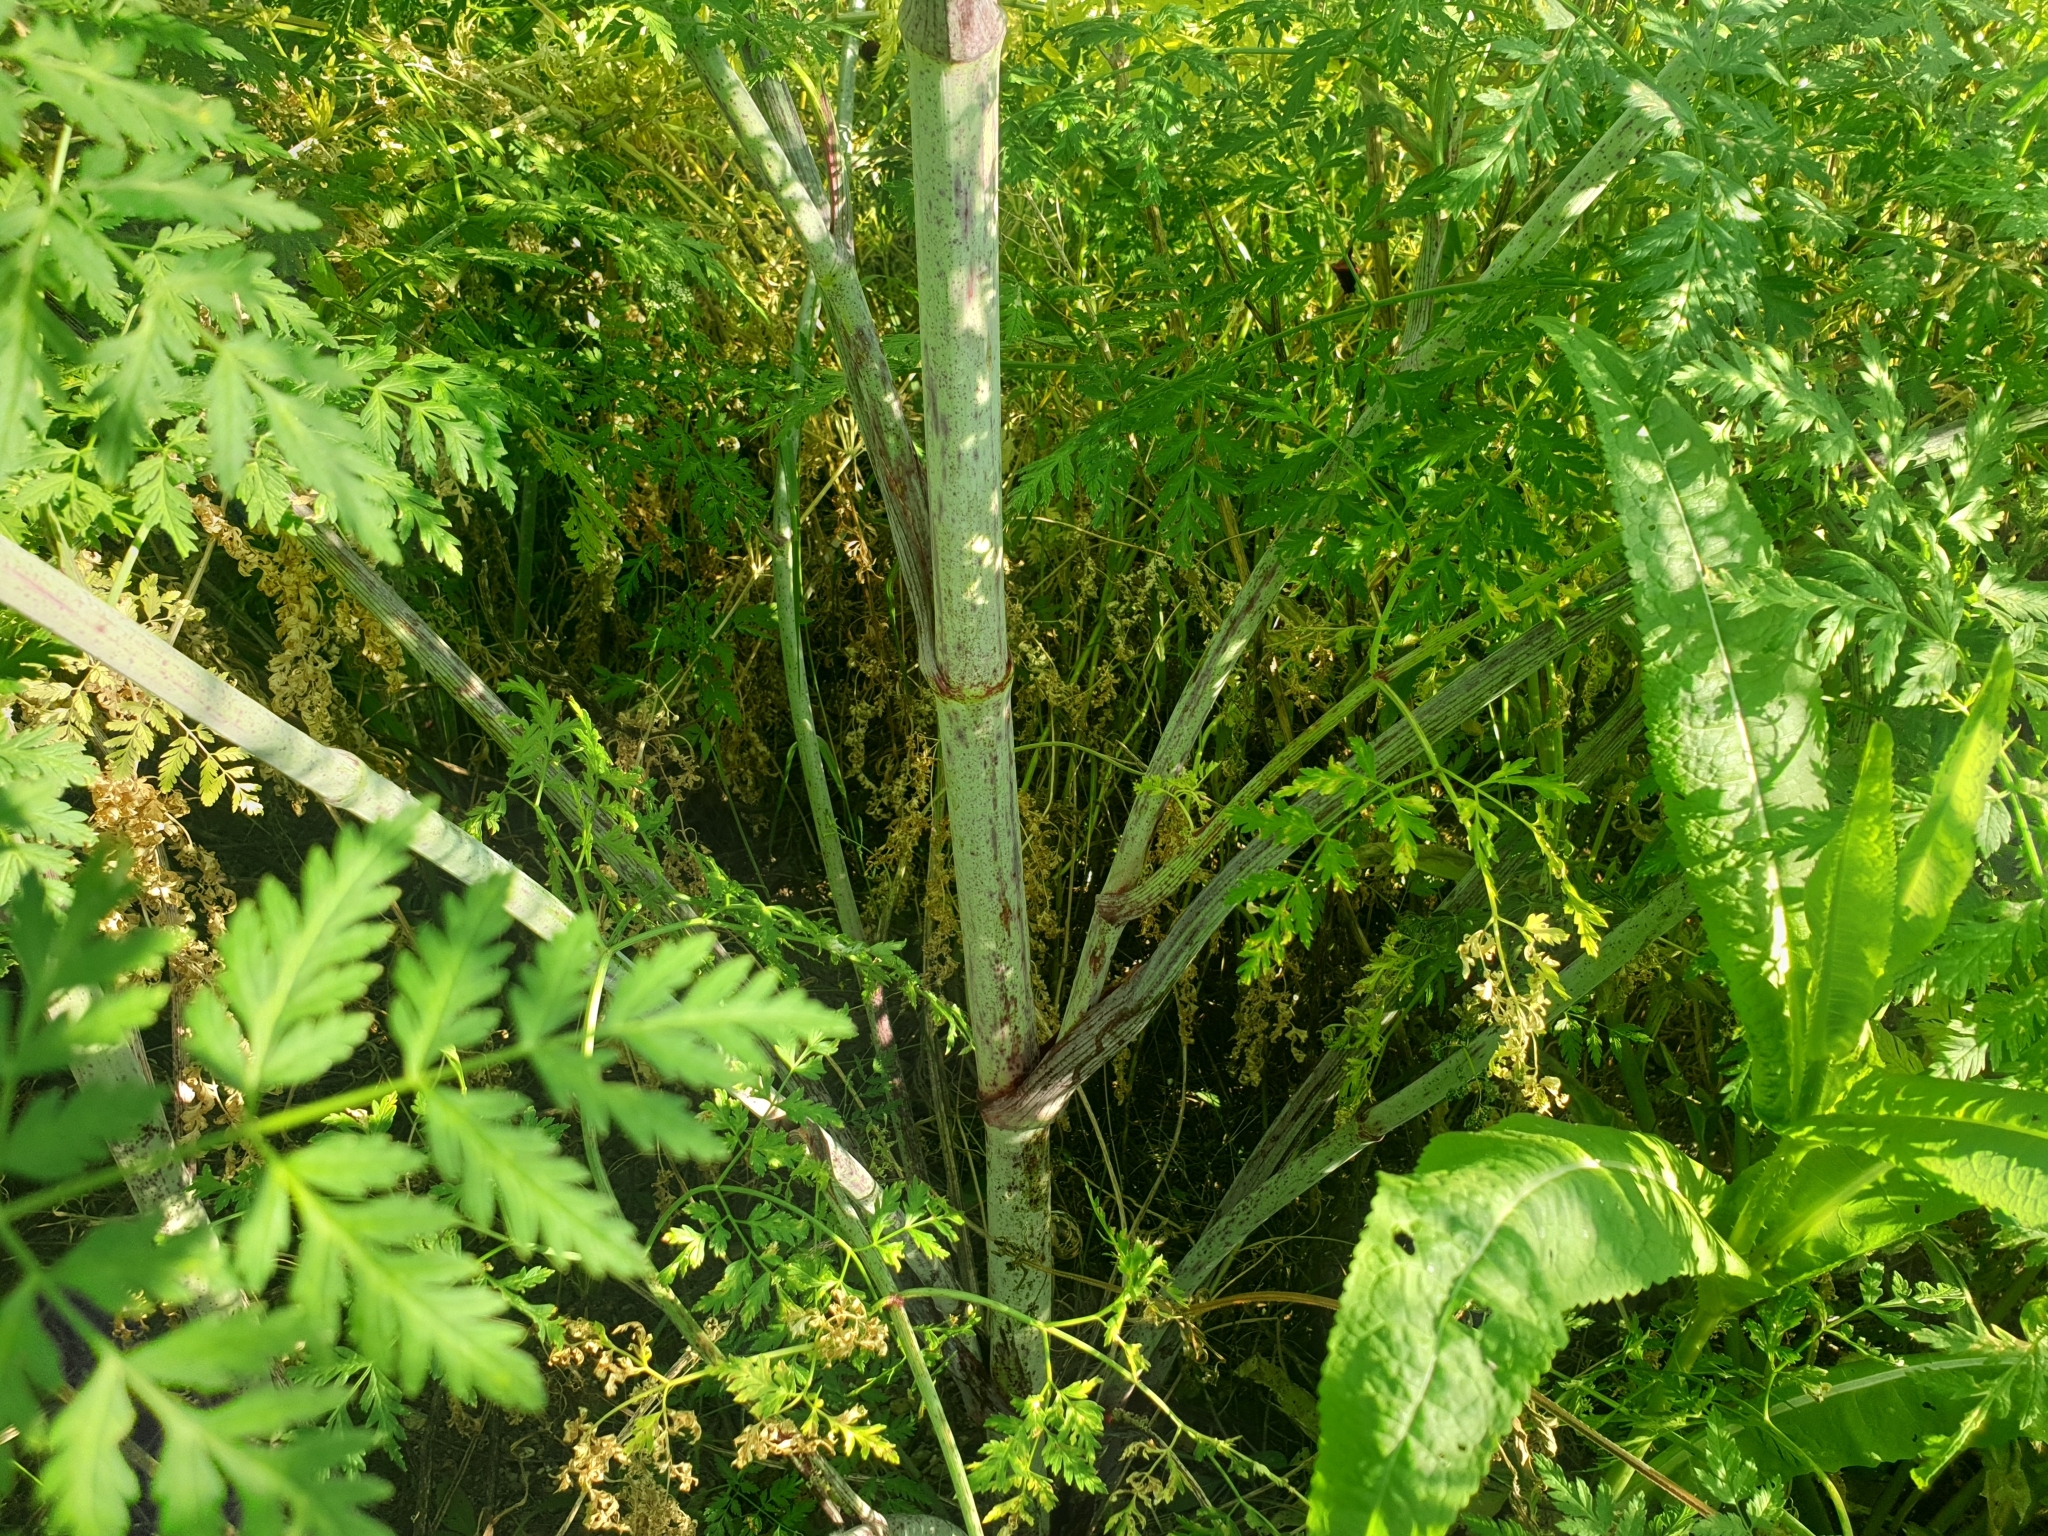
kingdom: Plantae
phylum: Tracheophyta
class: Magnoliopsida
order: Apiales
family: Apiaceae
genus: Conium
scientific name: Conium maculatum
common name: Hemlock
